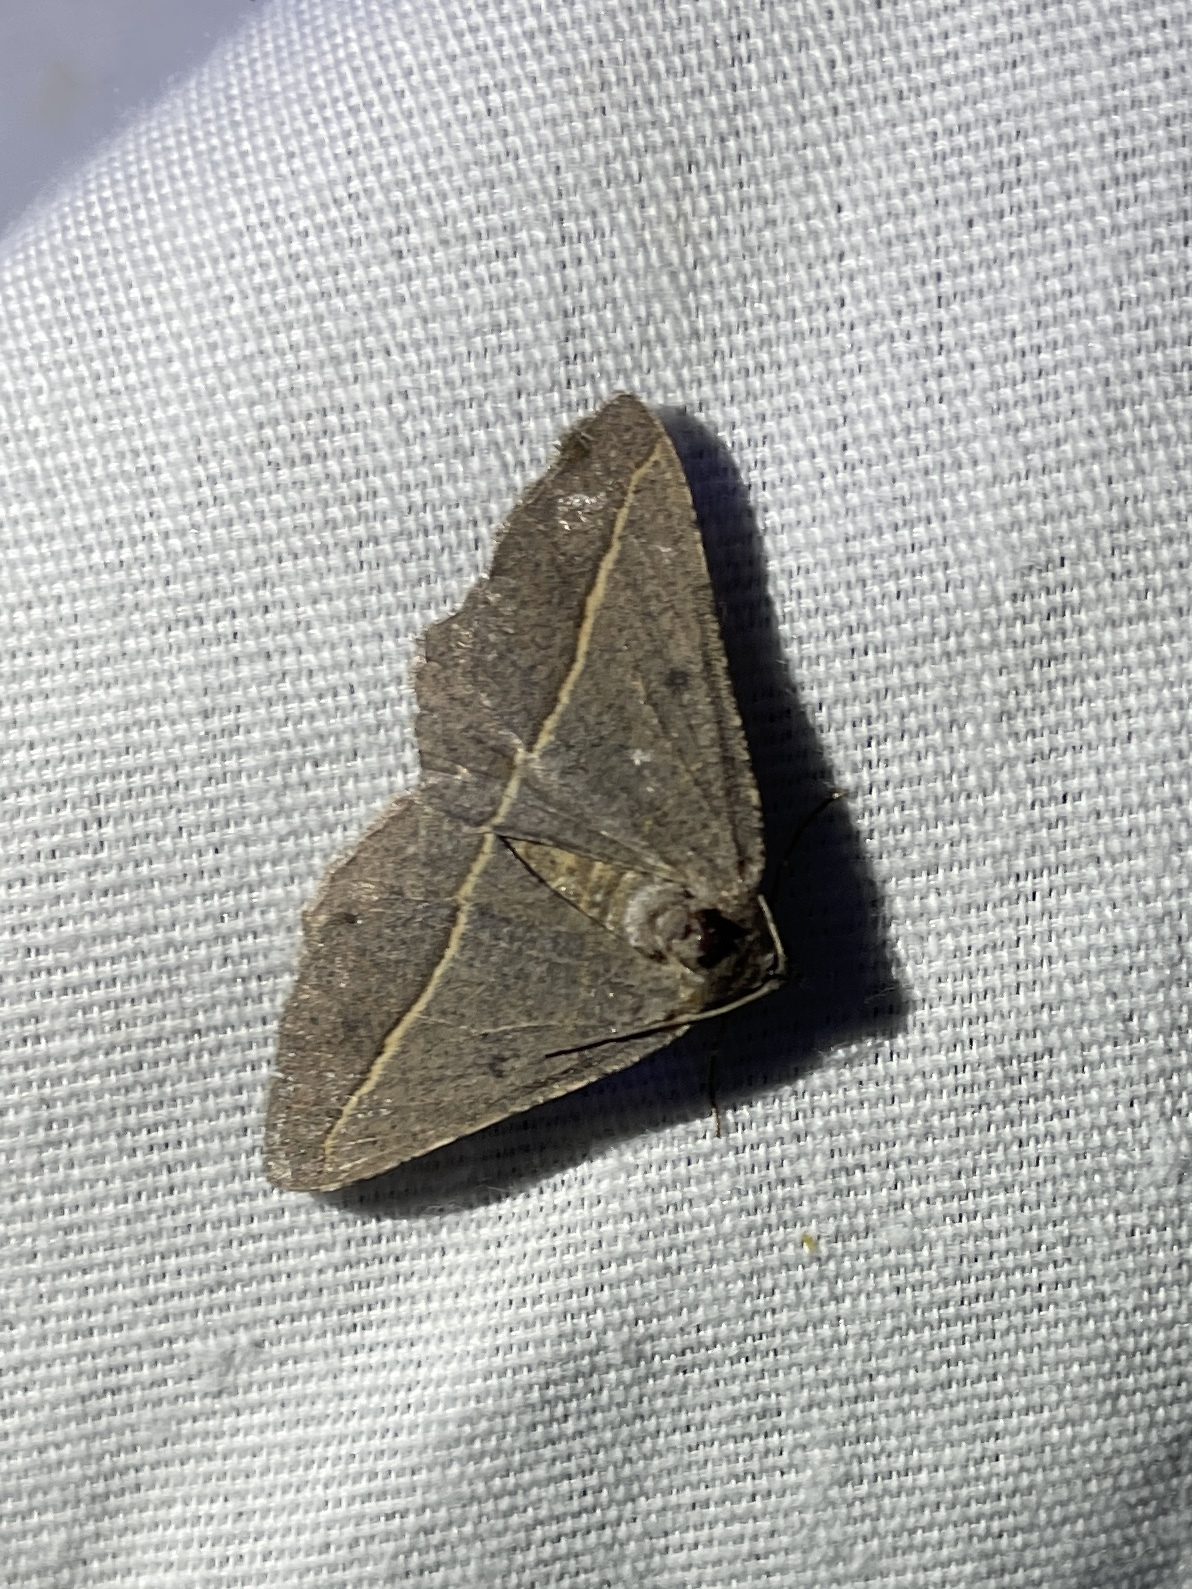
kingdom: Animalia
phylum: Arthropoda
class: Insecta
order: Lepidoptera
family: Geometridae
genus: Digrammia
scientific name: Digrammia irrorata
